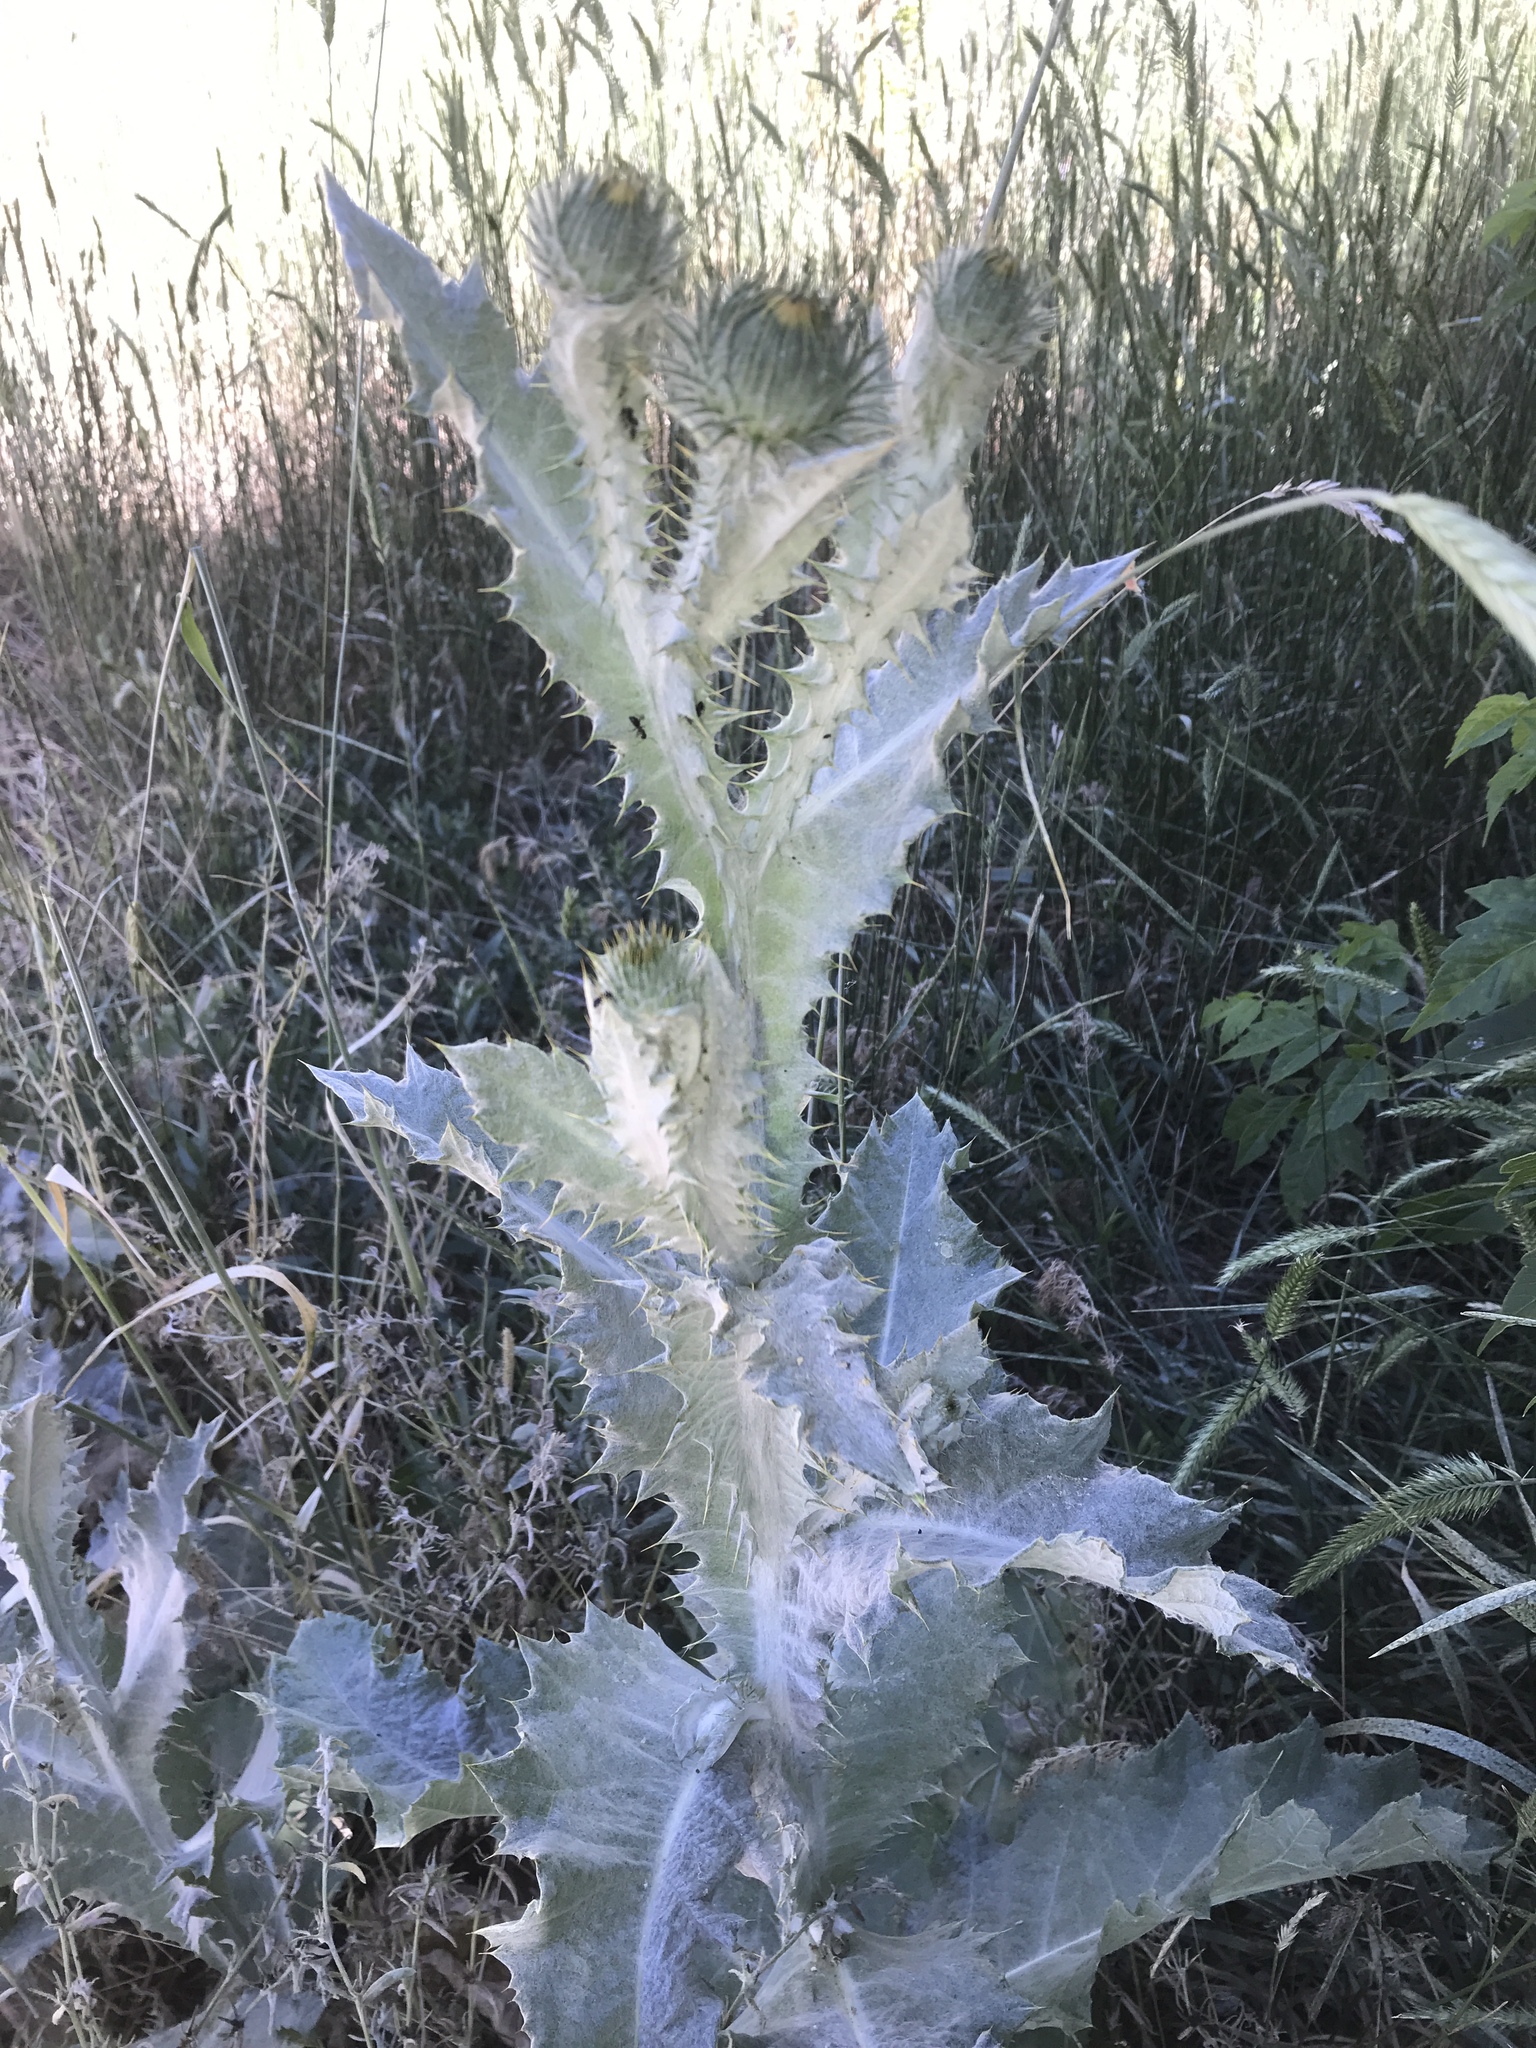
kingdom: Plantae
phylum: Tracheophyta
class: Magnoliopsida
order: Asterales
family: Asteraceae
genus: Onopordum
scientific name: Onopordum acanthium
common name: Scotch thistle
